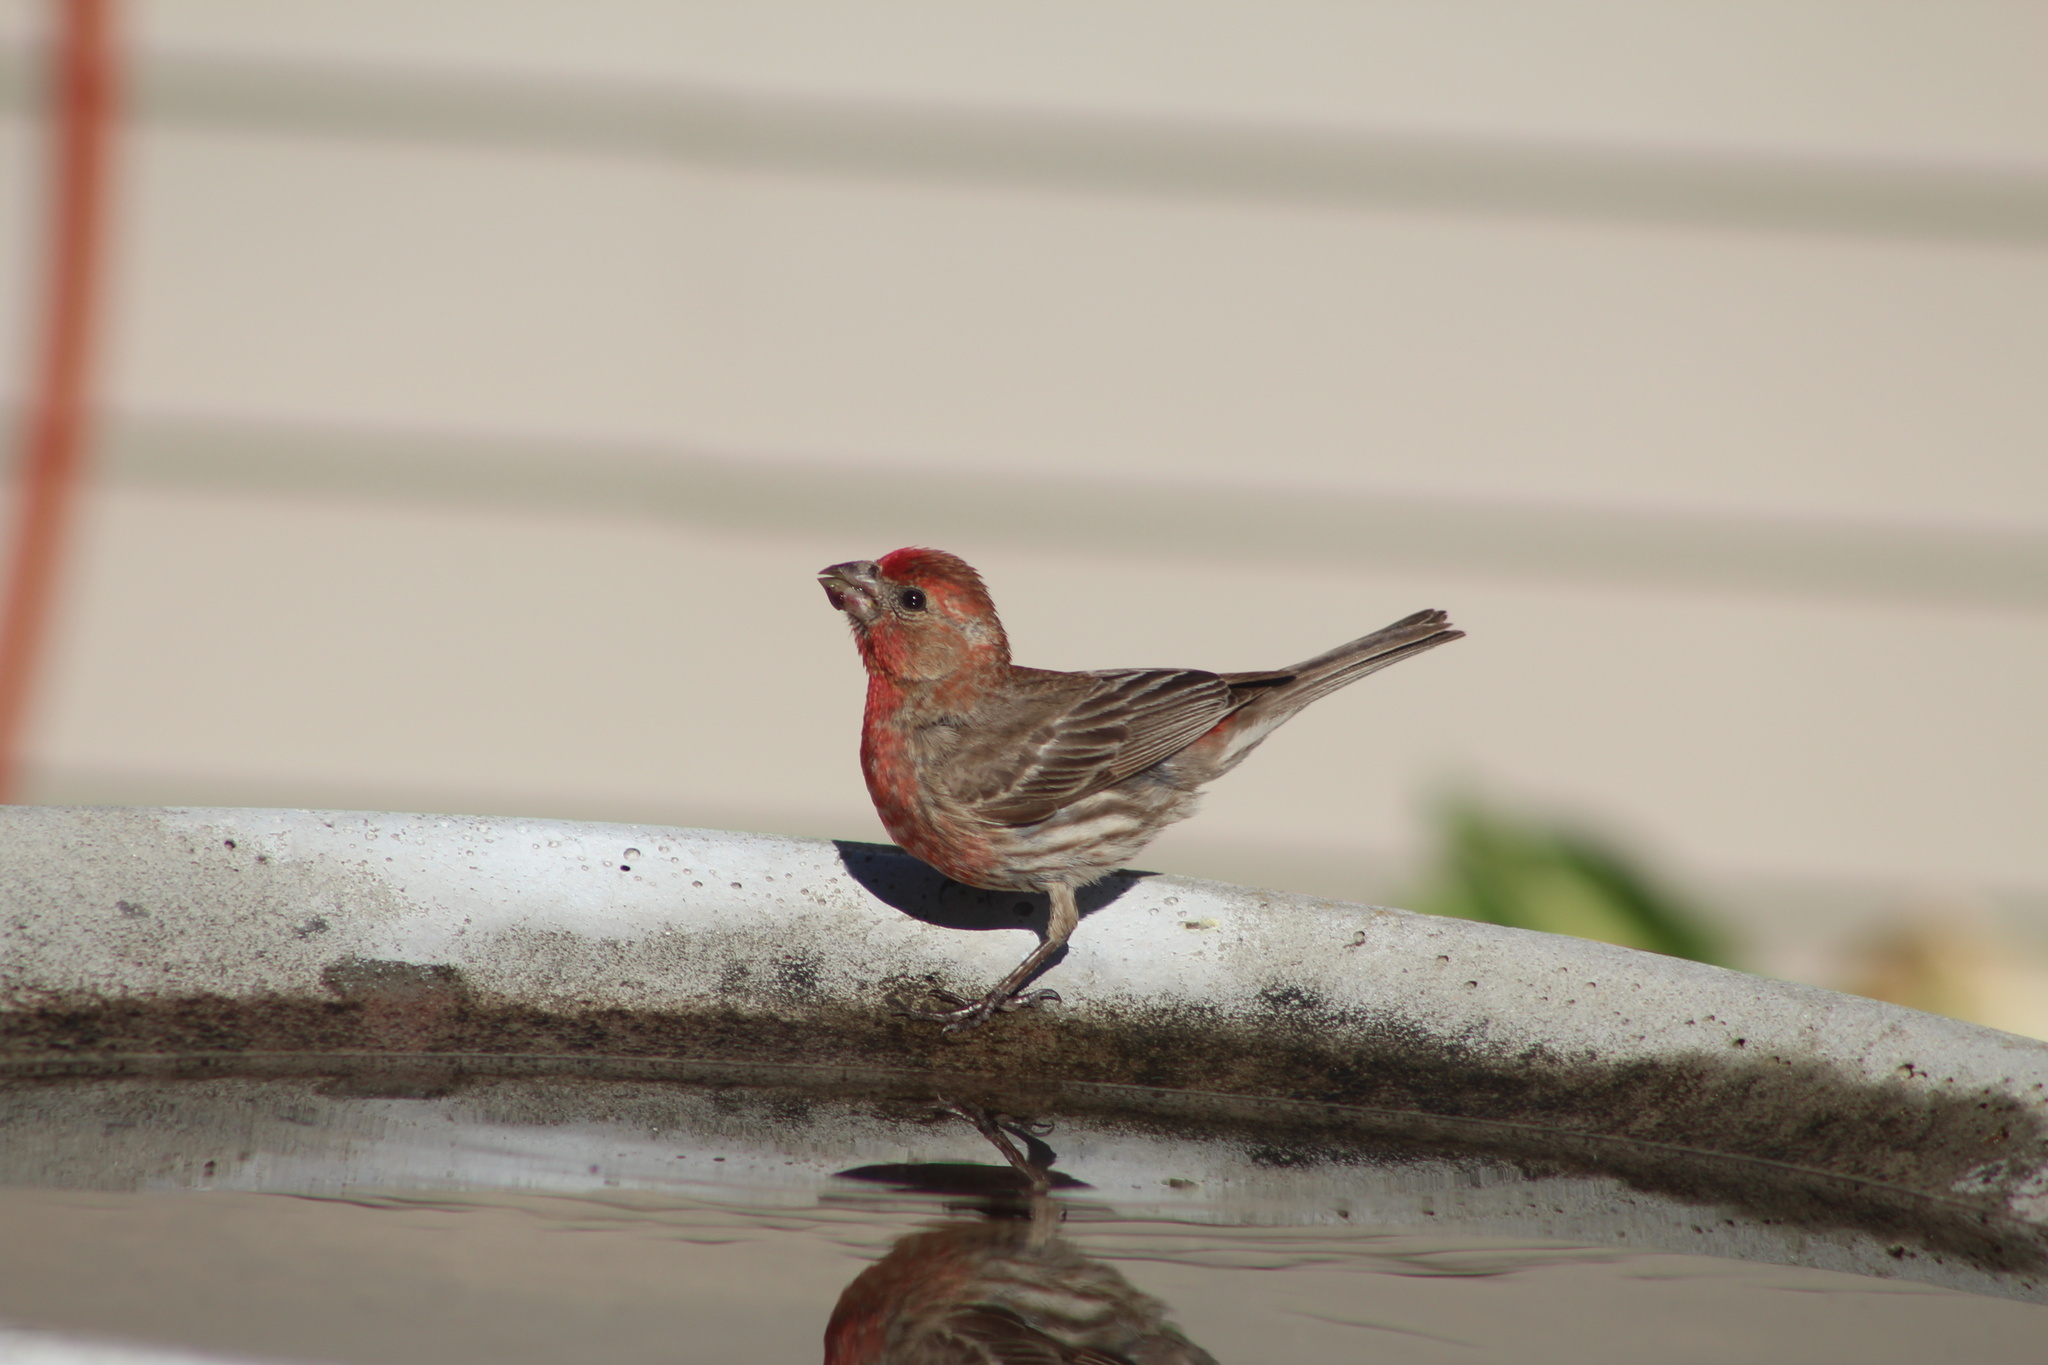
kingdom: Animalia
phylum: Chordata
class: Aves
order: Passeriformes
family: Fringillidae
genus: Haemorhous
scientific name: Haemorhous mexicanus
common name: House finch
